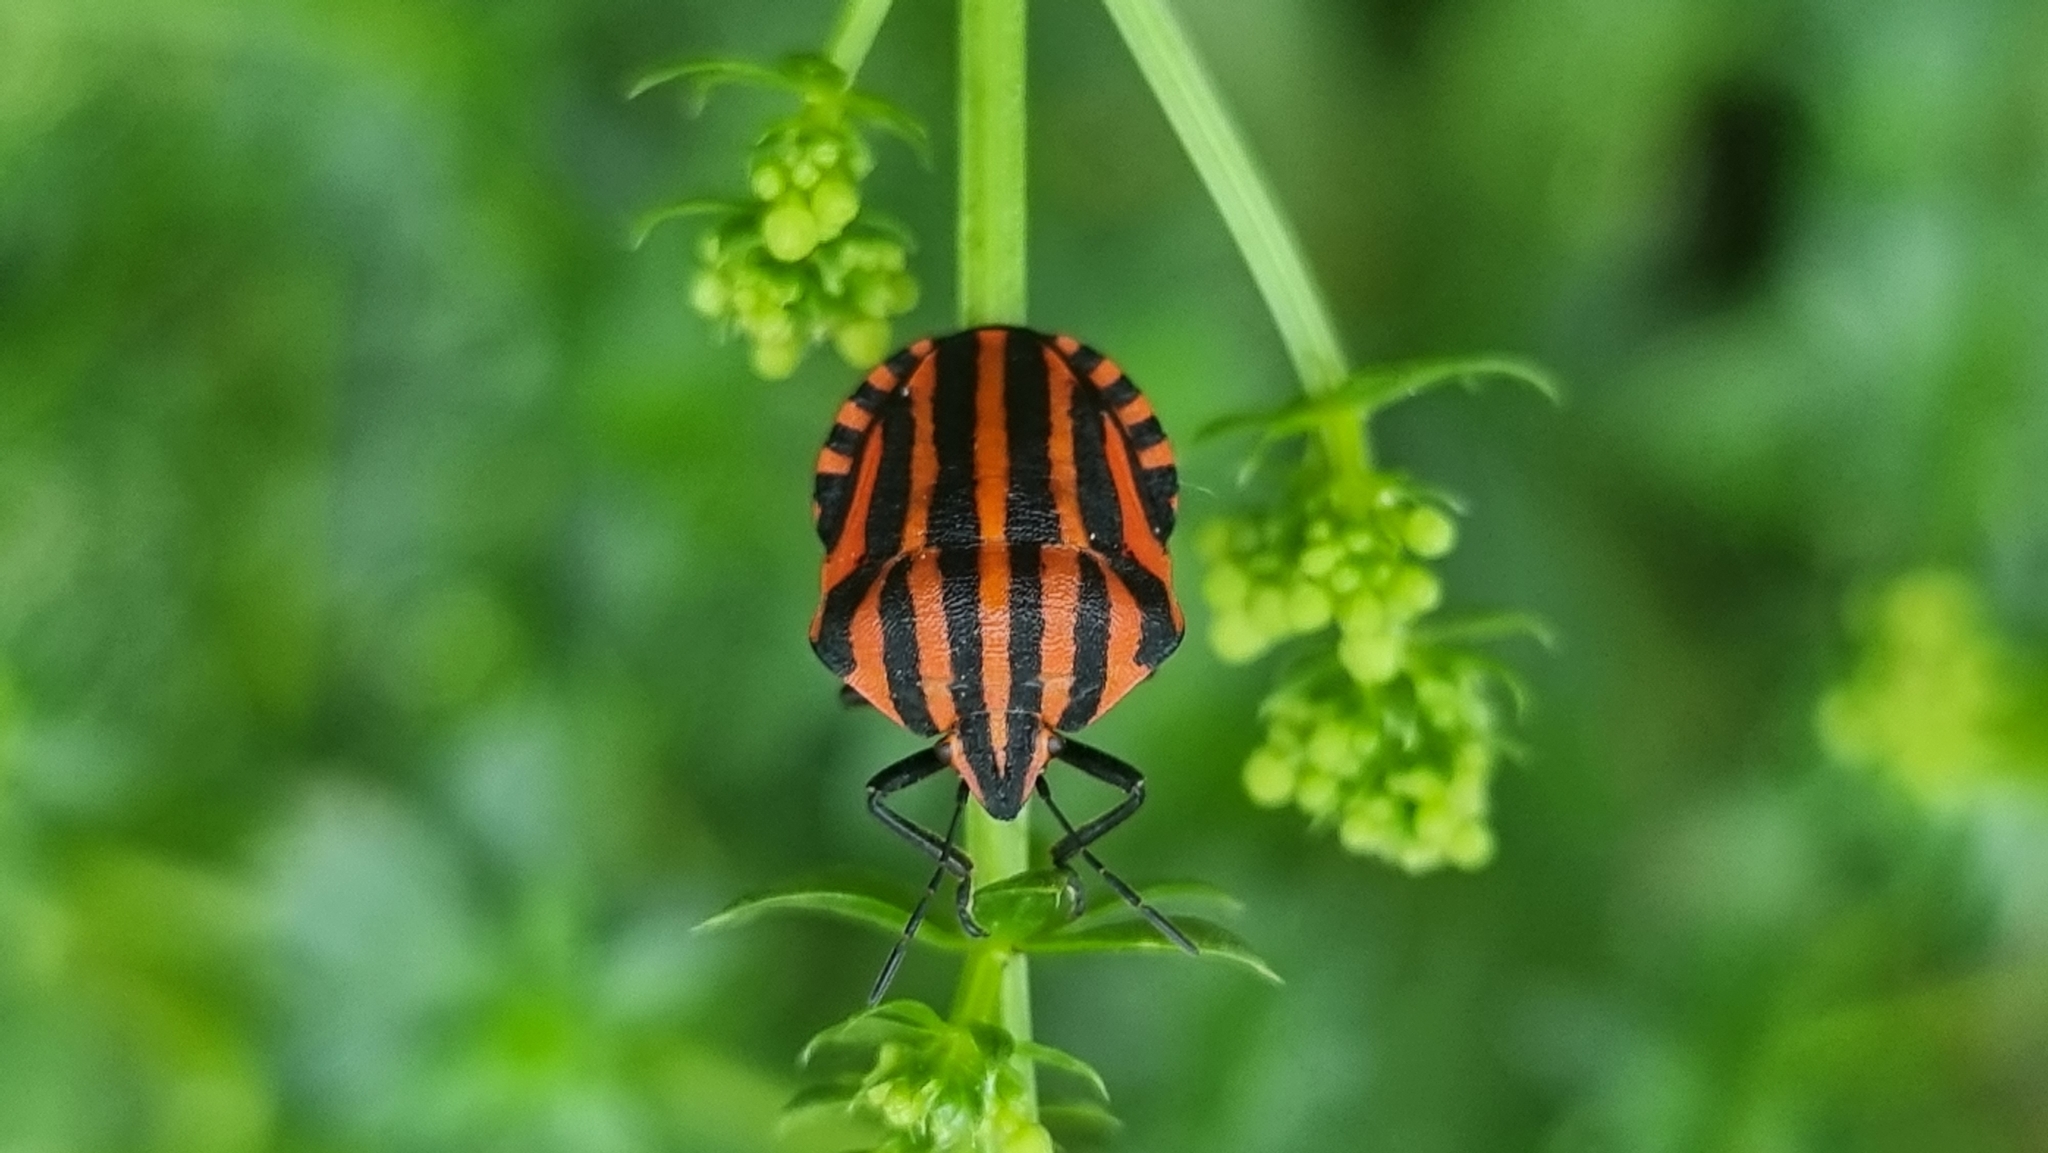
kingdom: Animalia
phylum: Arthropoda
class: Insecta
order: Hemiptera
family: Pentatomidae
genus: Graphosoma
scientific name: Graphosoma italicum
